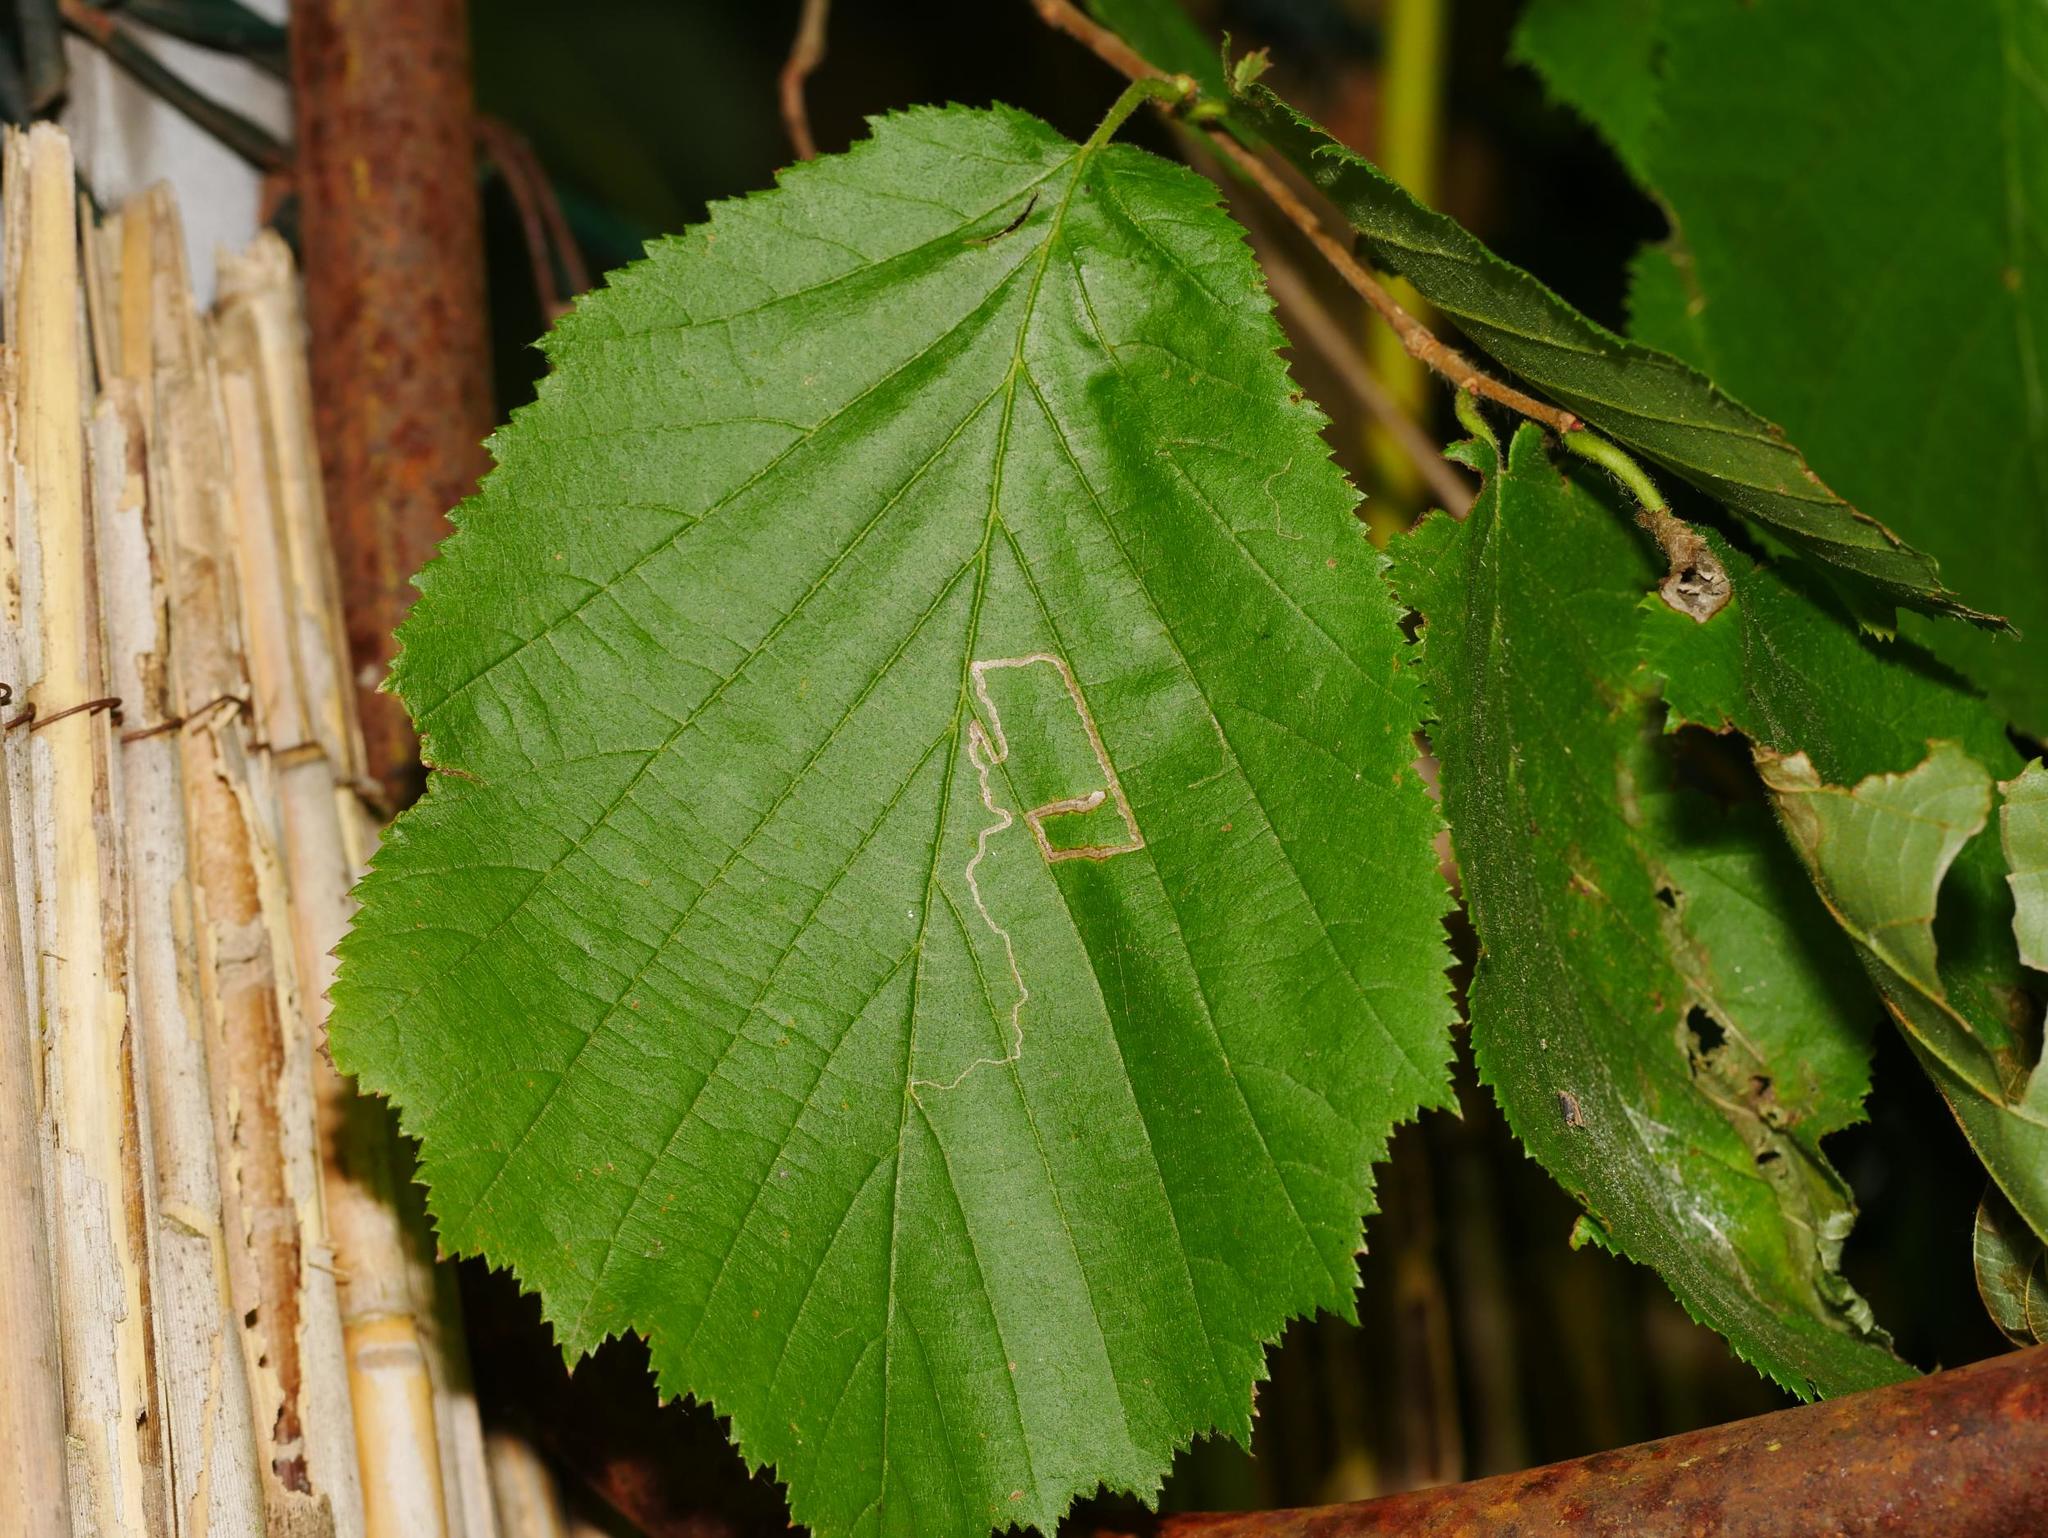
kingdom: Plantae
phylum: Tracheophyta
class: Magnoliopsida
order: Fagales
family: Betulaceae
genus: Corylus
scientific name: Corylus avellana
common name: European hazel
